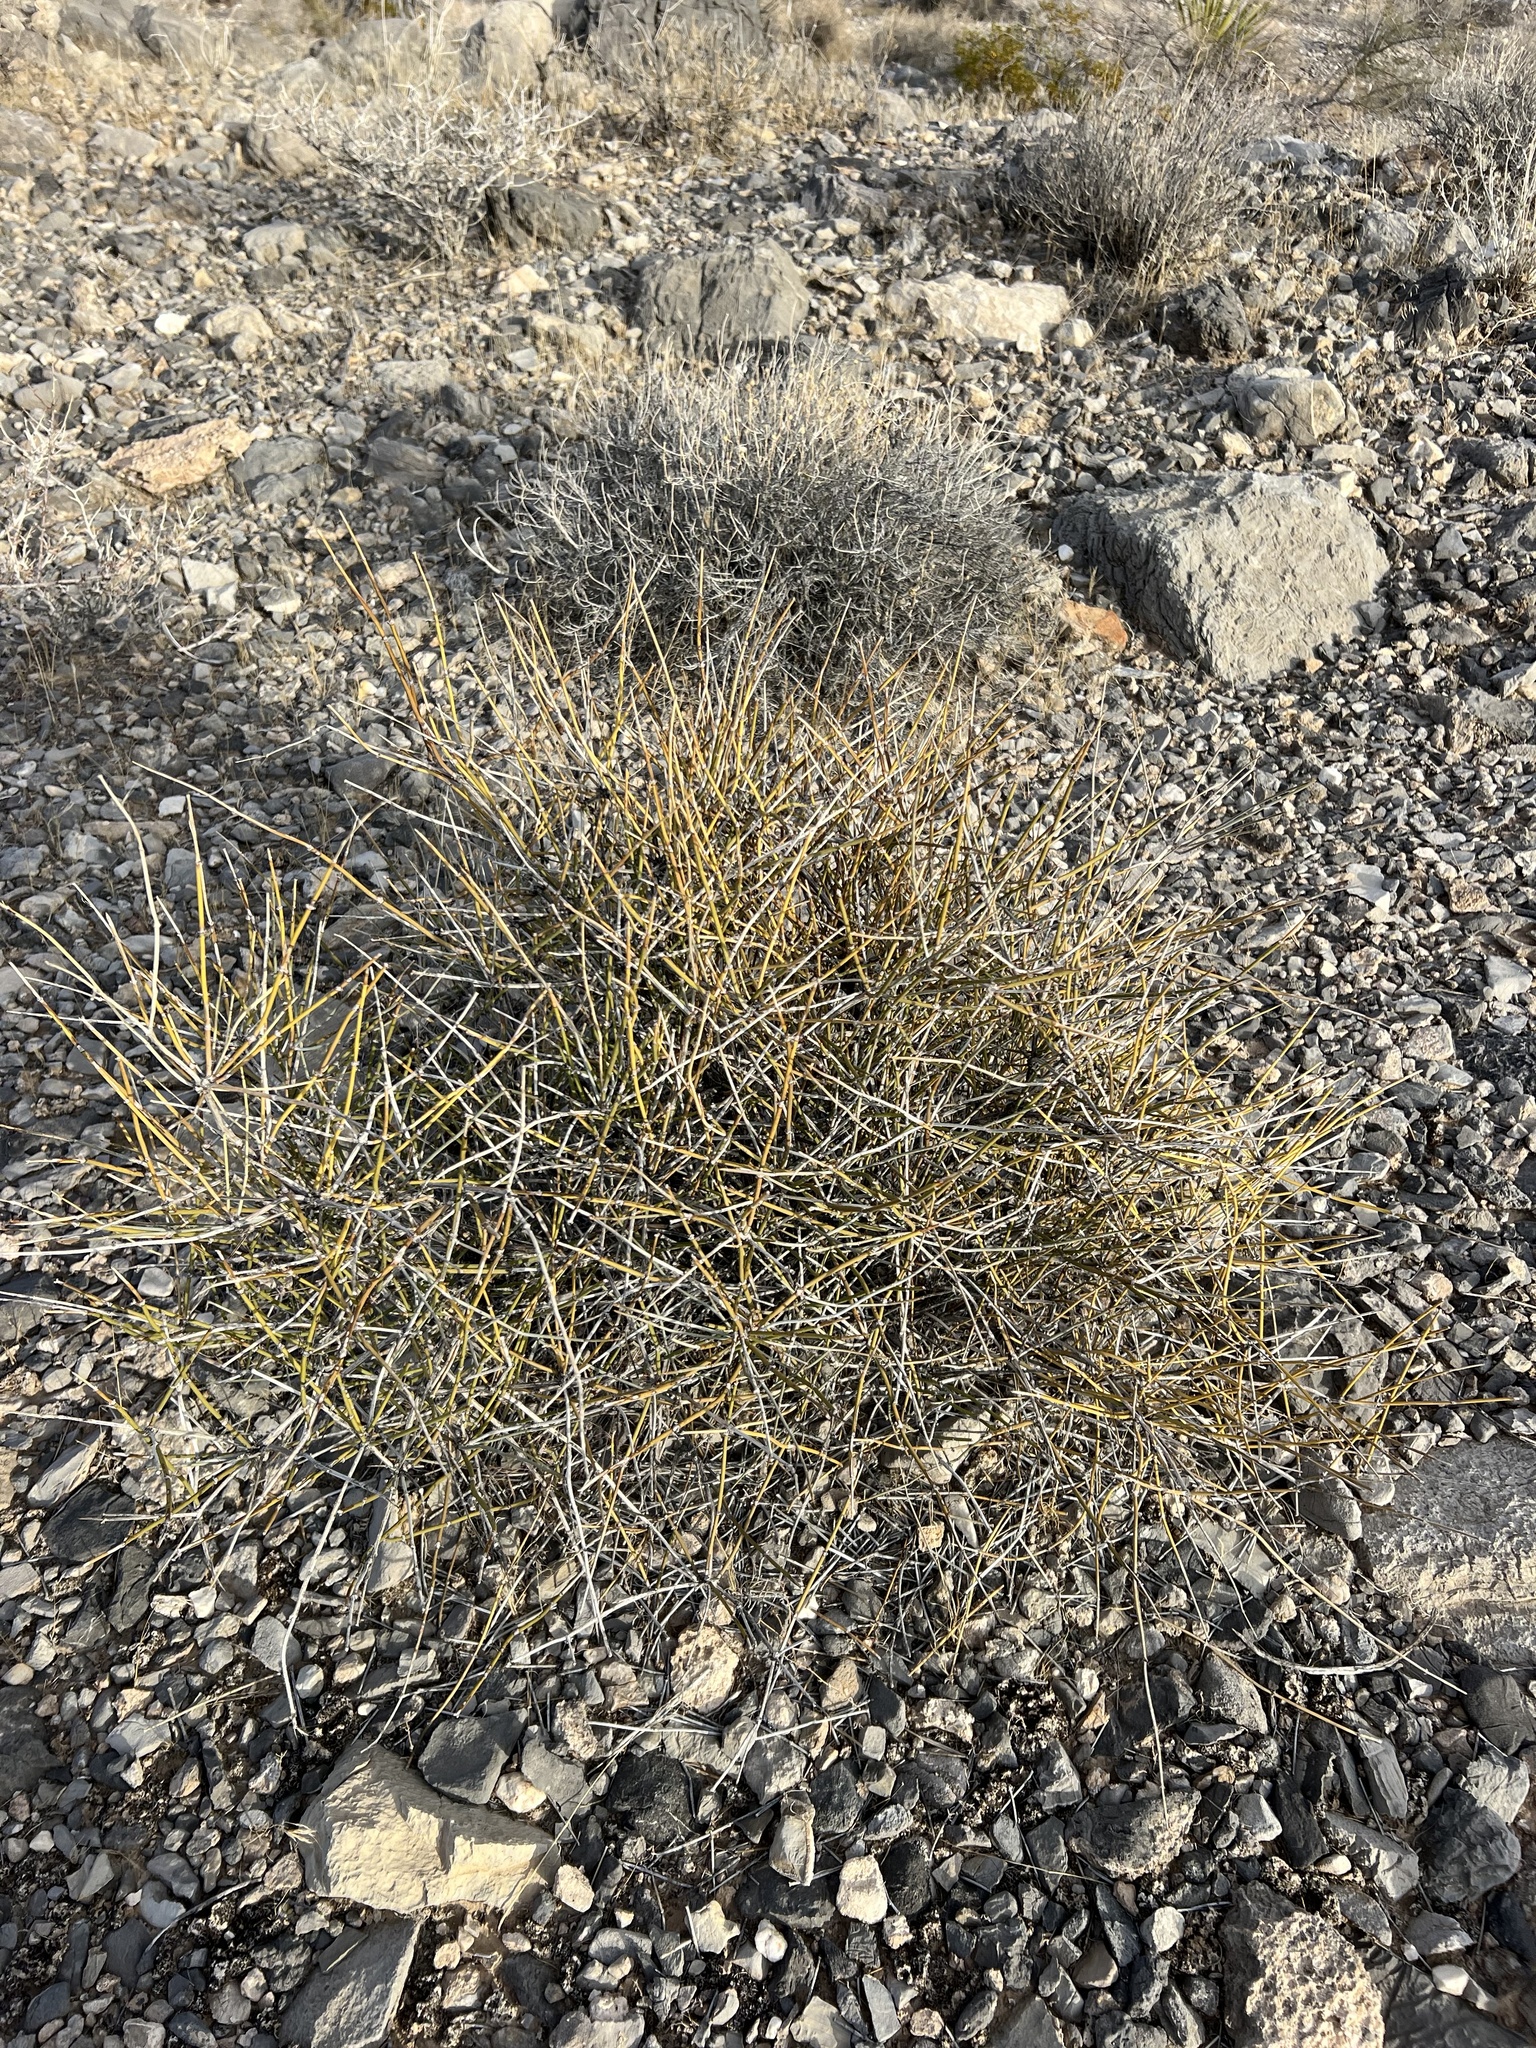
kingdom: Plantae
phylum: Tracheophyta
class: Gnetopsida
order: Ephedrales
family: Ephedraceae
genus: Ephedra
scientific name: Ephedra nevadensis
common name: Gray ephedra
